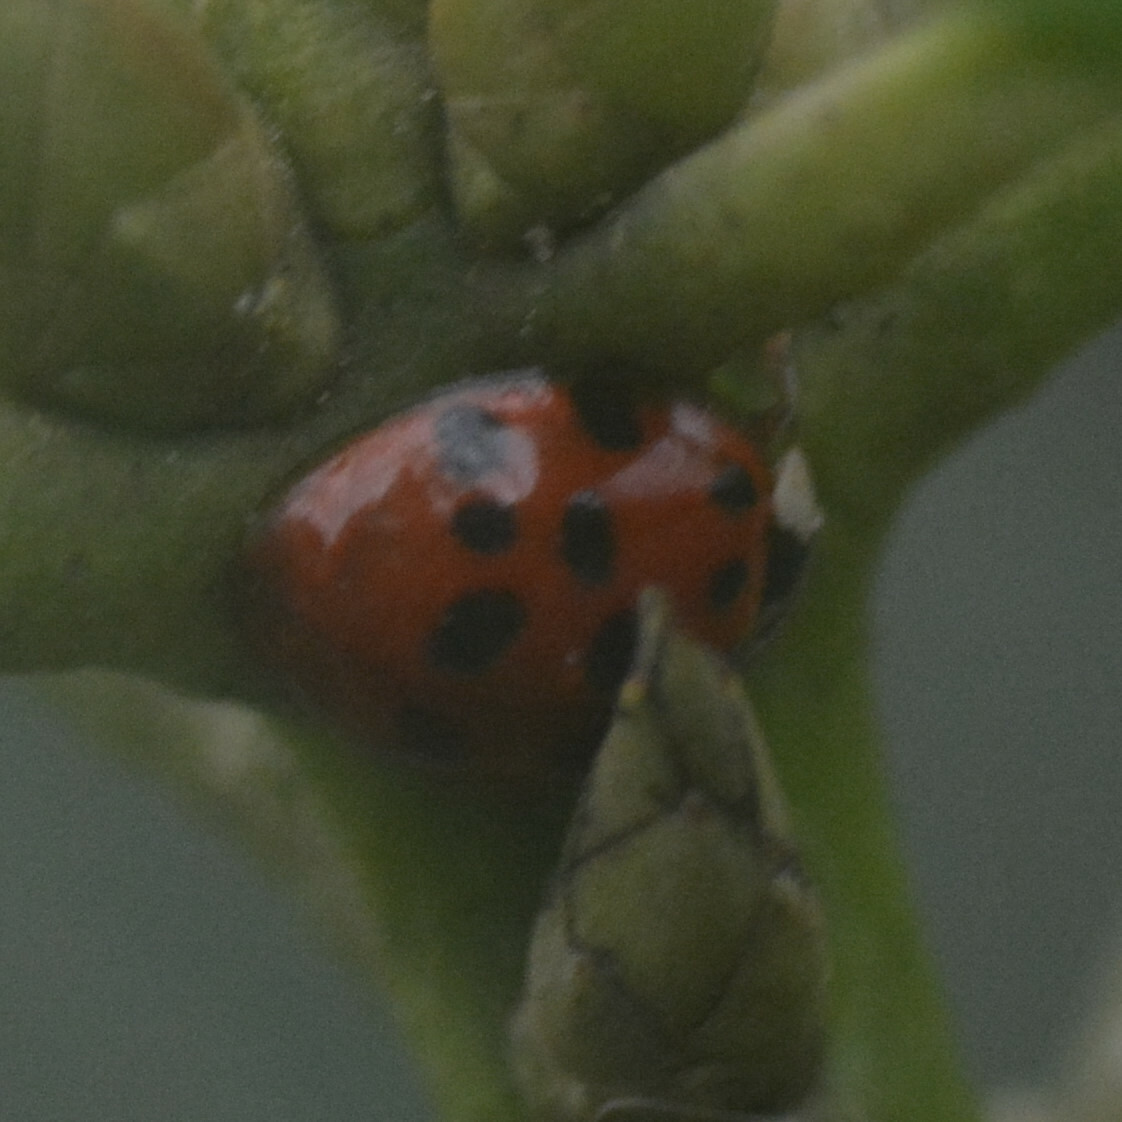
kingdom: Animalia
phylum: Arthropoda
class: Insecta
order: Coleoptera
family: Coccinellidae
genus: Harmonia
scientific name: Harmonia axyridis
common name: Harlequin ladybird
